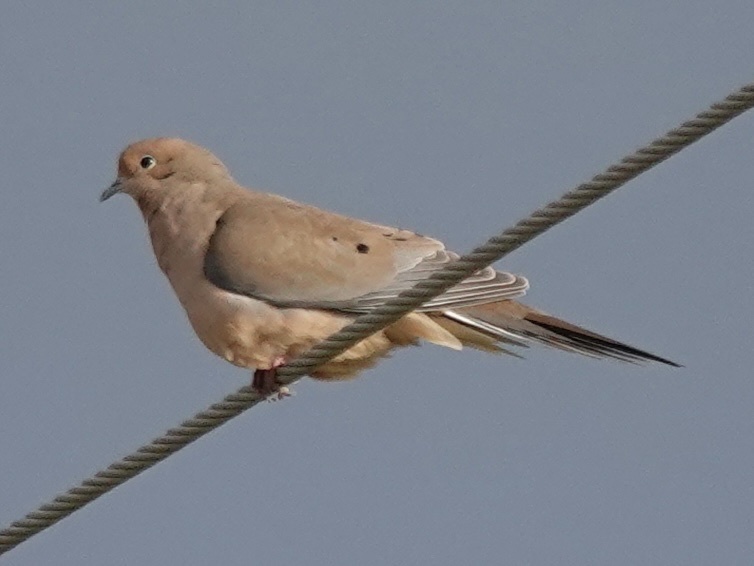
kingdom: Animalia
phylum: Chordata
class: Aves
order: Columbiformes
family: Columbidae
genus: Zenaida
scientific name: Zenaida macroura
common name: Mourning dove
